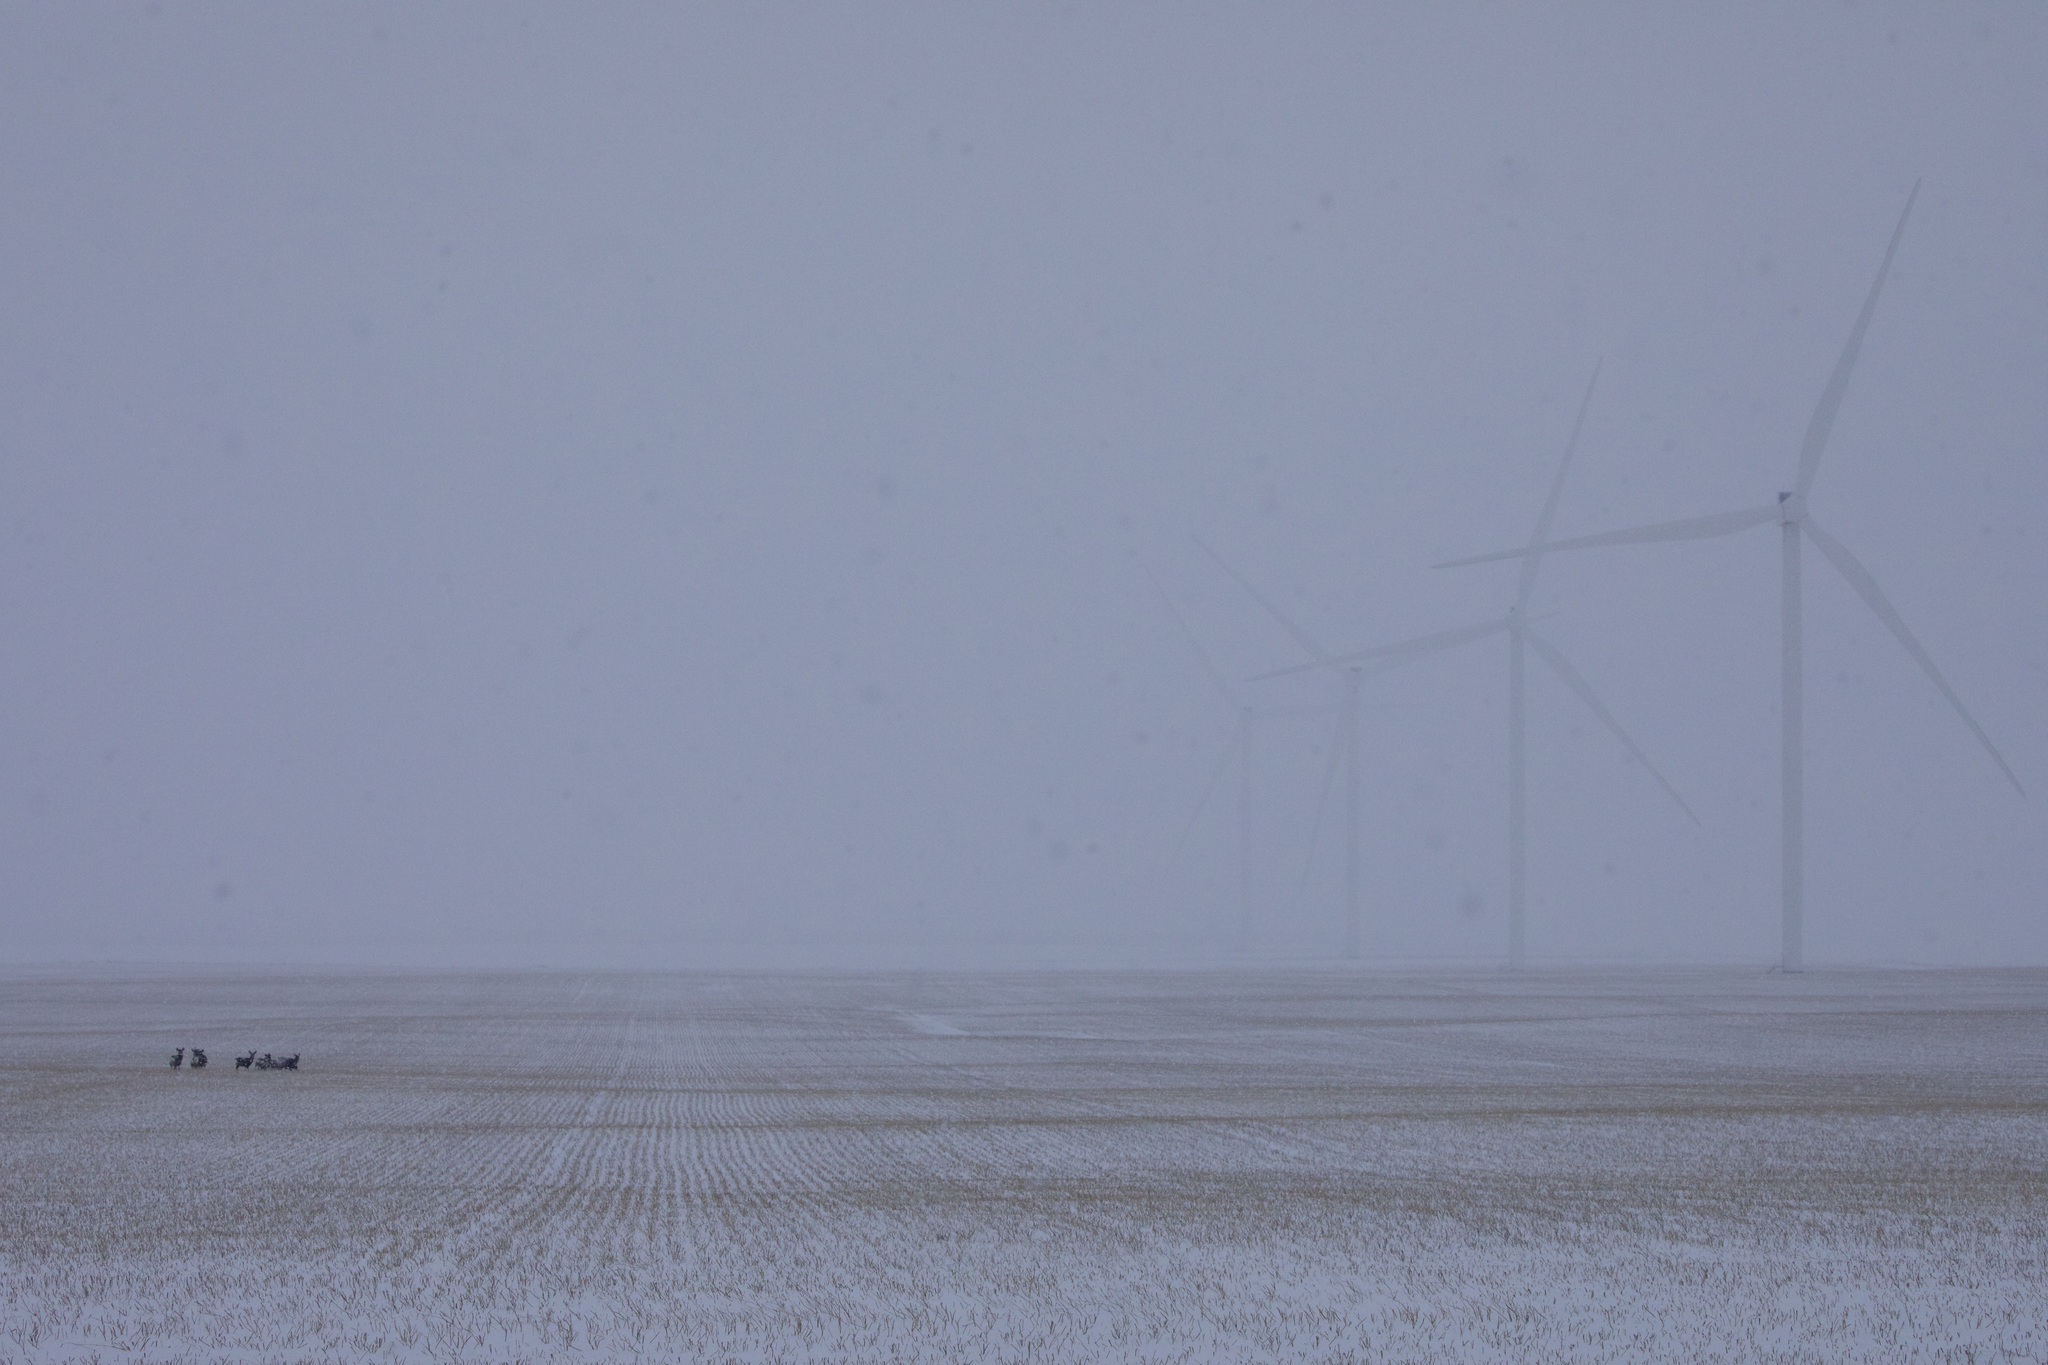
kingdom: Animalia
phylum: Chordata
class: Mammalia
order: Artiodactyla
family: Cervidae
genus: Odocoileus
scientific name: Odocoileus hemionus
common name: Mule deer
